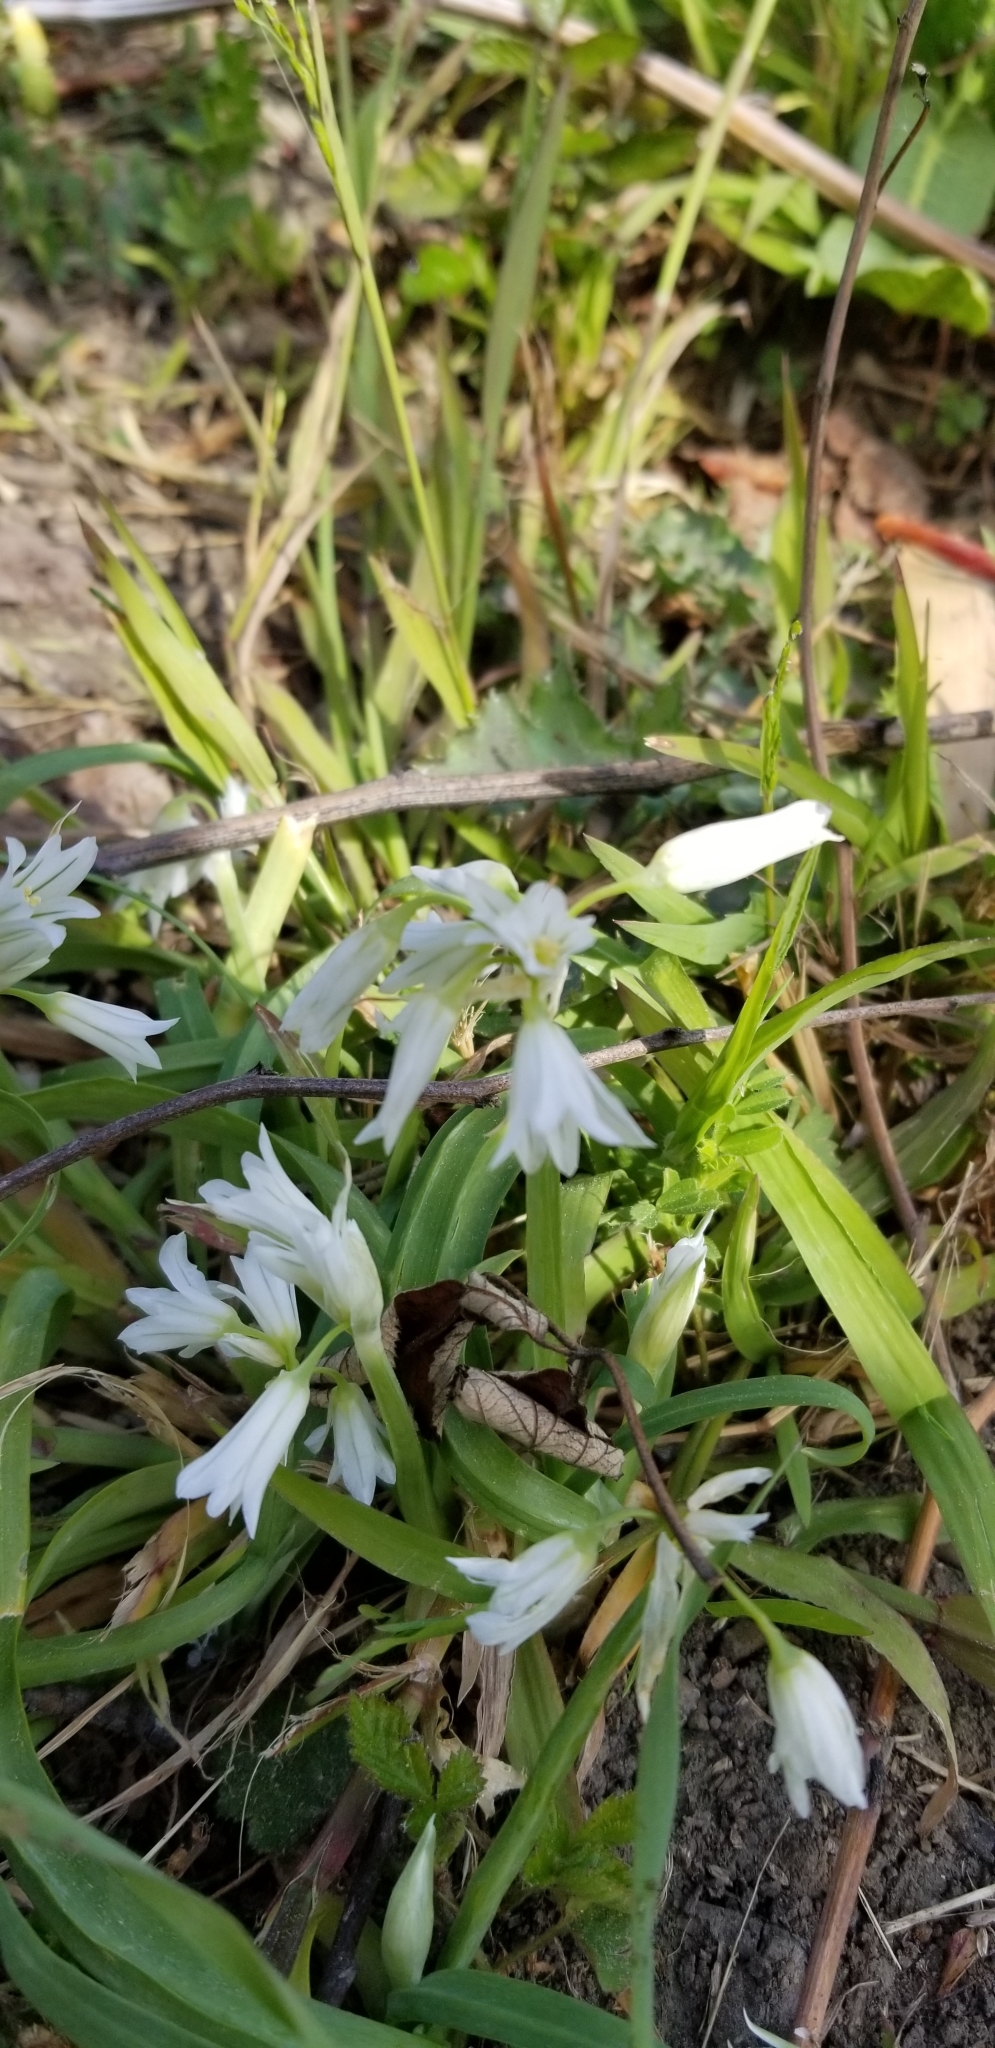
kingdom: Plantae
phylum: Tracheophyta
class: Liliopsida
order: Asparagales
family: Amaryllidaceae
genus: Allium
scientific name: Allium triquetrum
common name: Three-cornered garlic
